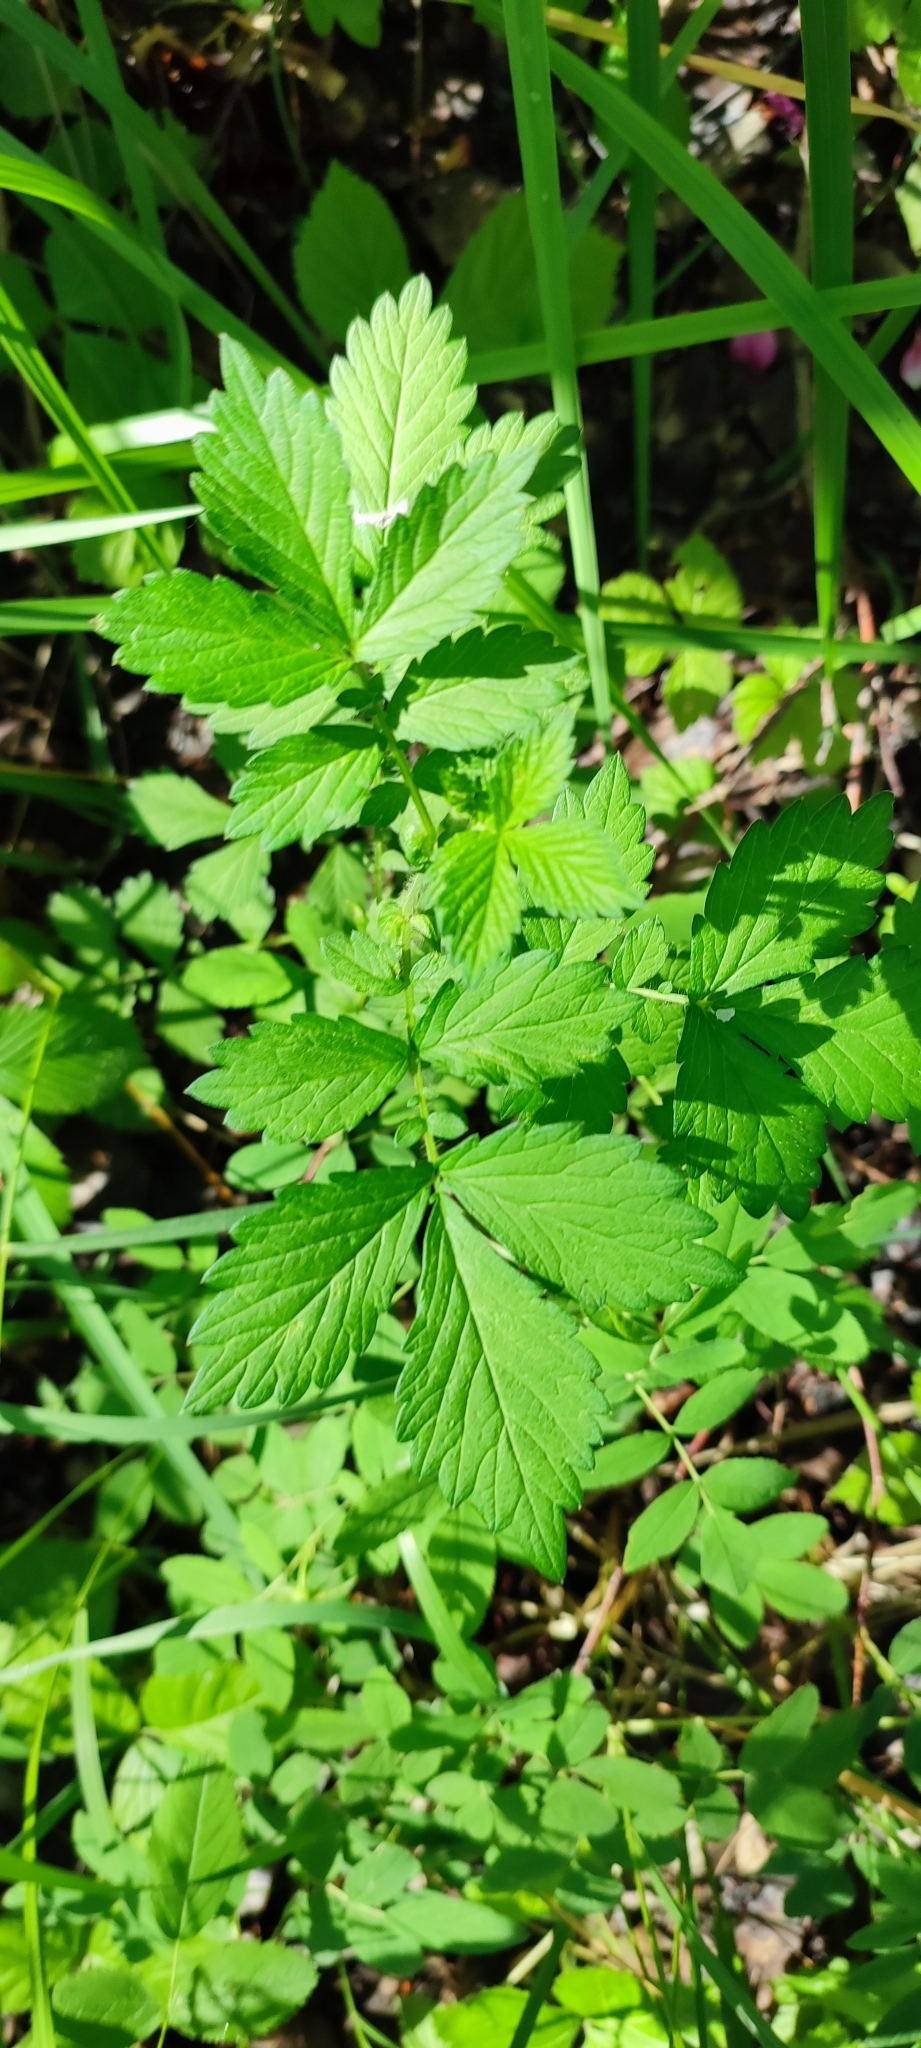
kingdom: Plantae
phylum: Tracheophyta
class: Magnoliopsida
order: Rosales
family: Rosaceae
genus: Agrimonia
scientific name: Agrimonia pilosa
